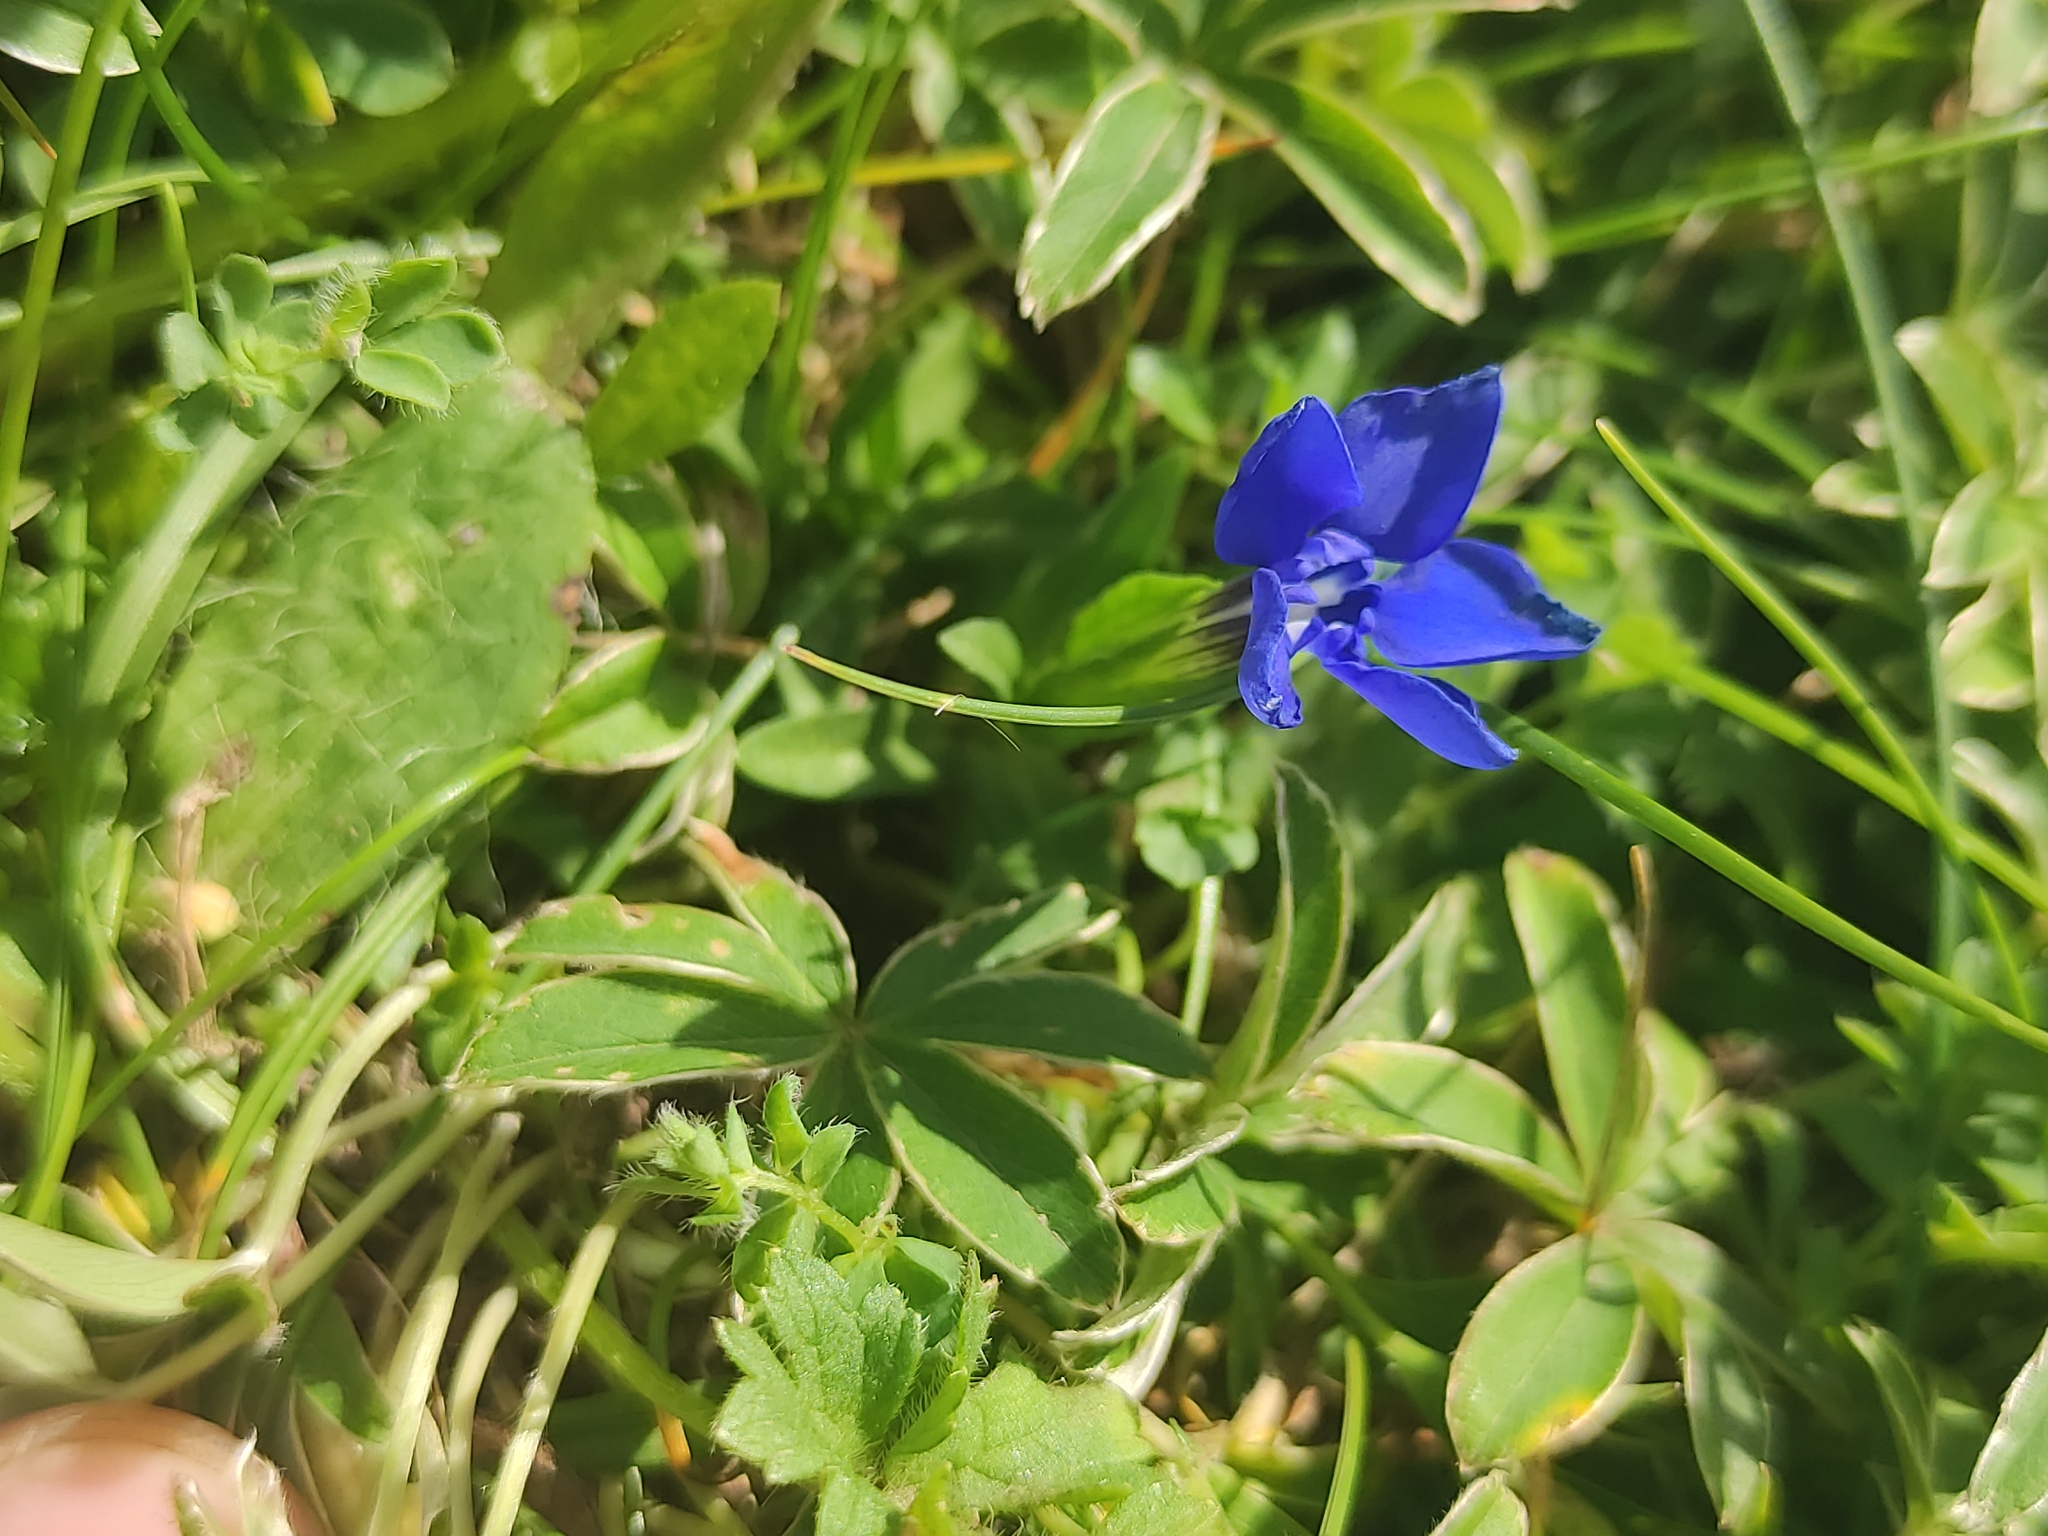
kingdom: Plantae
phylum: Tracheophyta
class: Magnoliopsida
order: Gentianales
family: Gentianaceae
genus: Gentiana
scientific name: Gentiana verna
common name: Spring gentian
